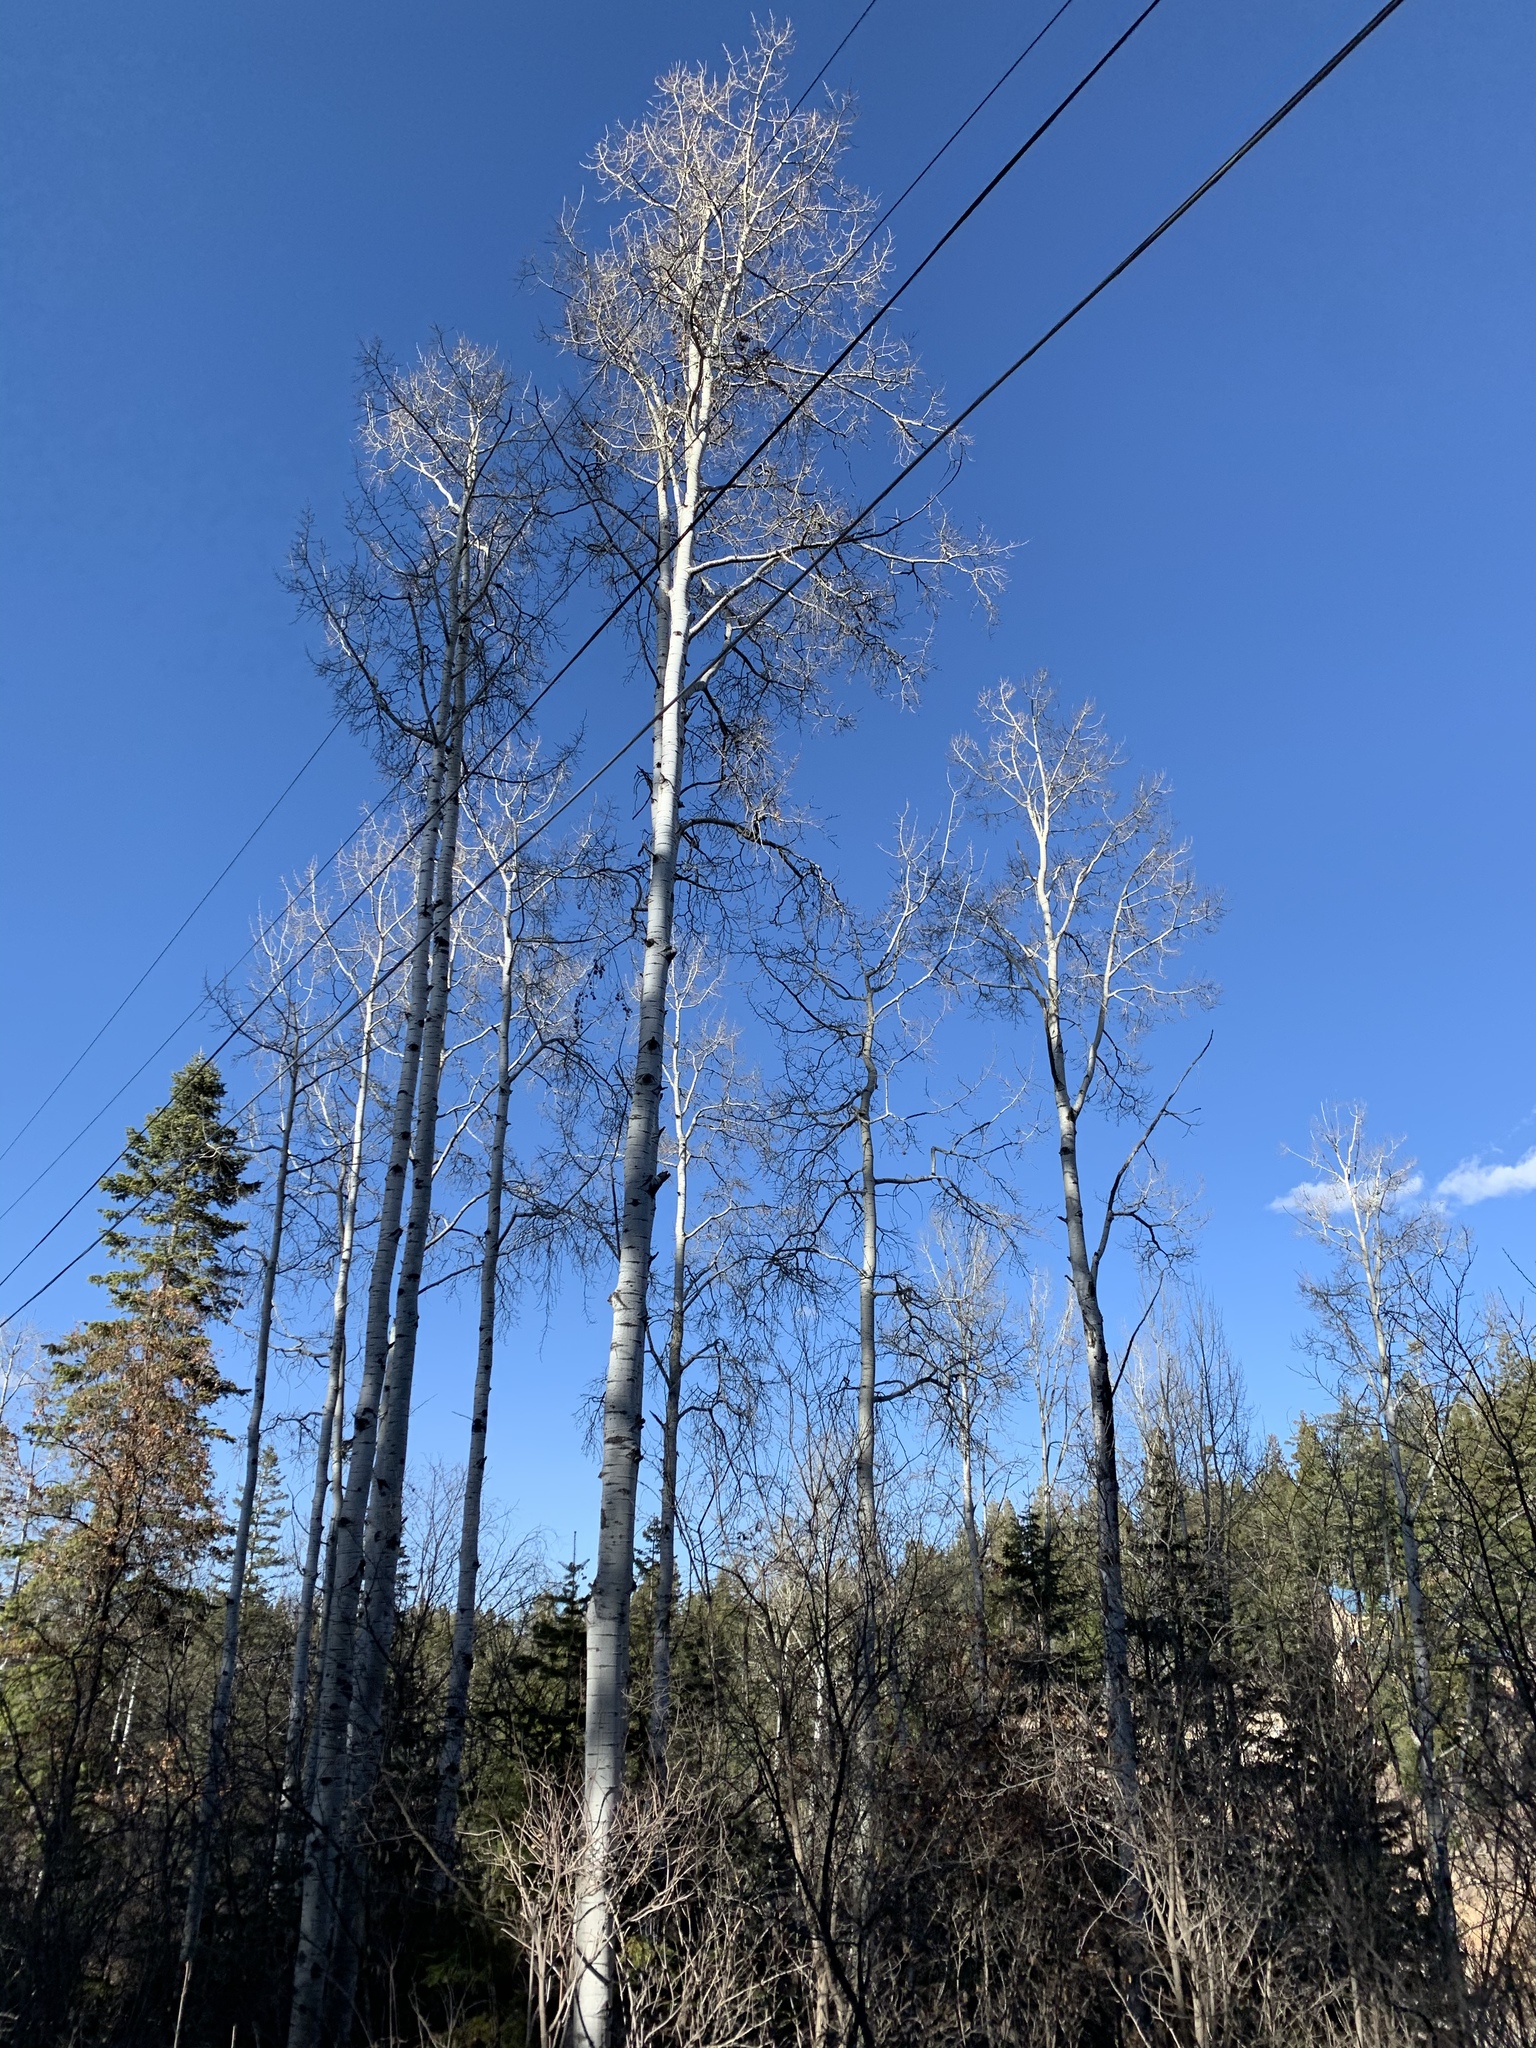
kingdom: Plantae
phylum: Tracheophyta
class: Magnoliopsida
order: Malpighiales
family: Salicaceae
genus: Populus
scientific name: Populus tremuloides
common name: Quaking aspen
